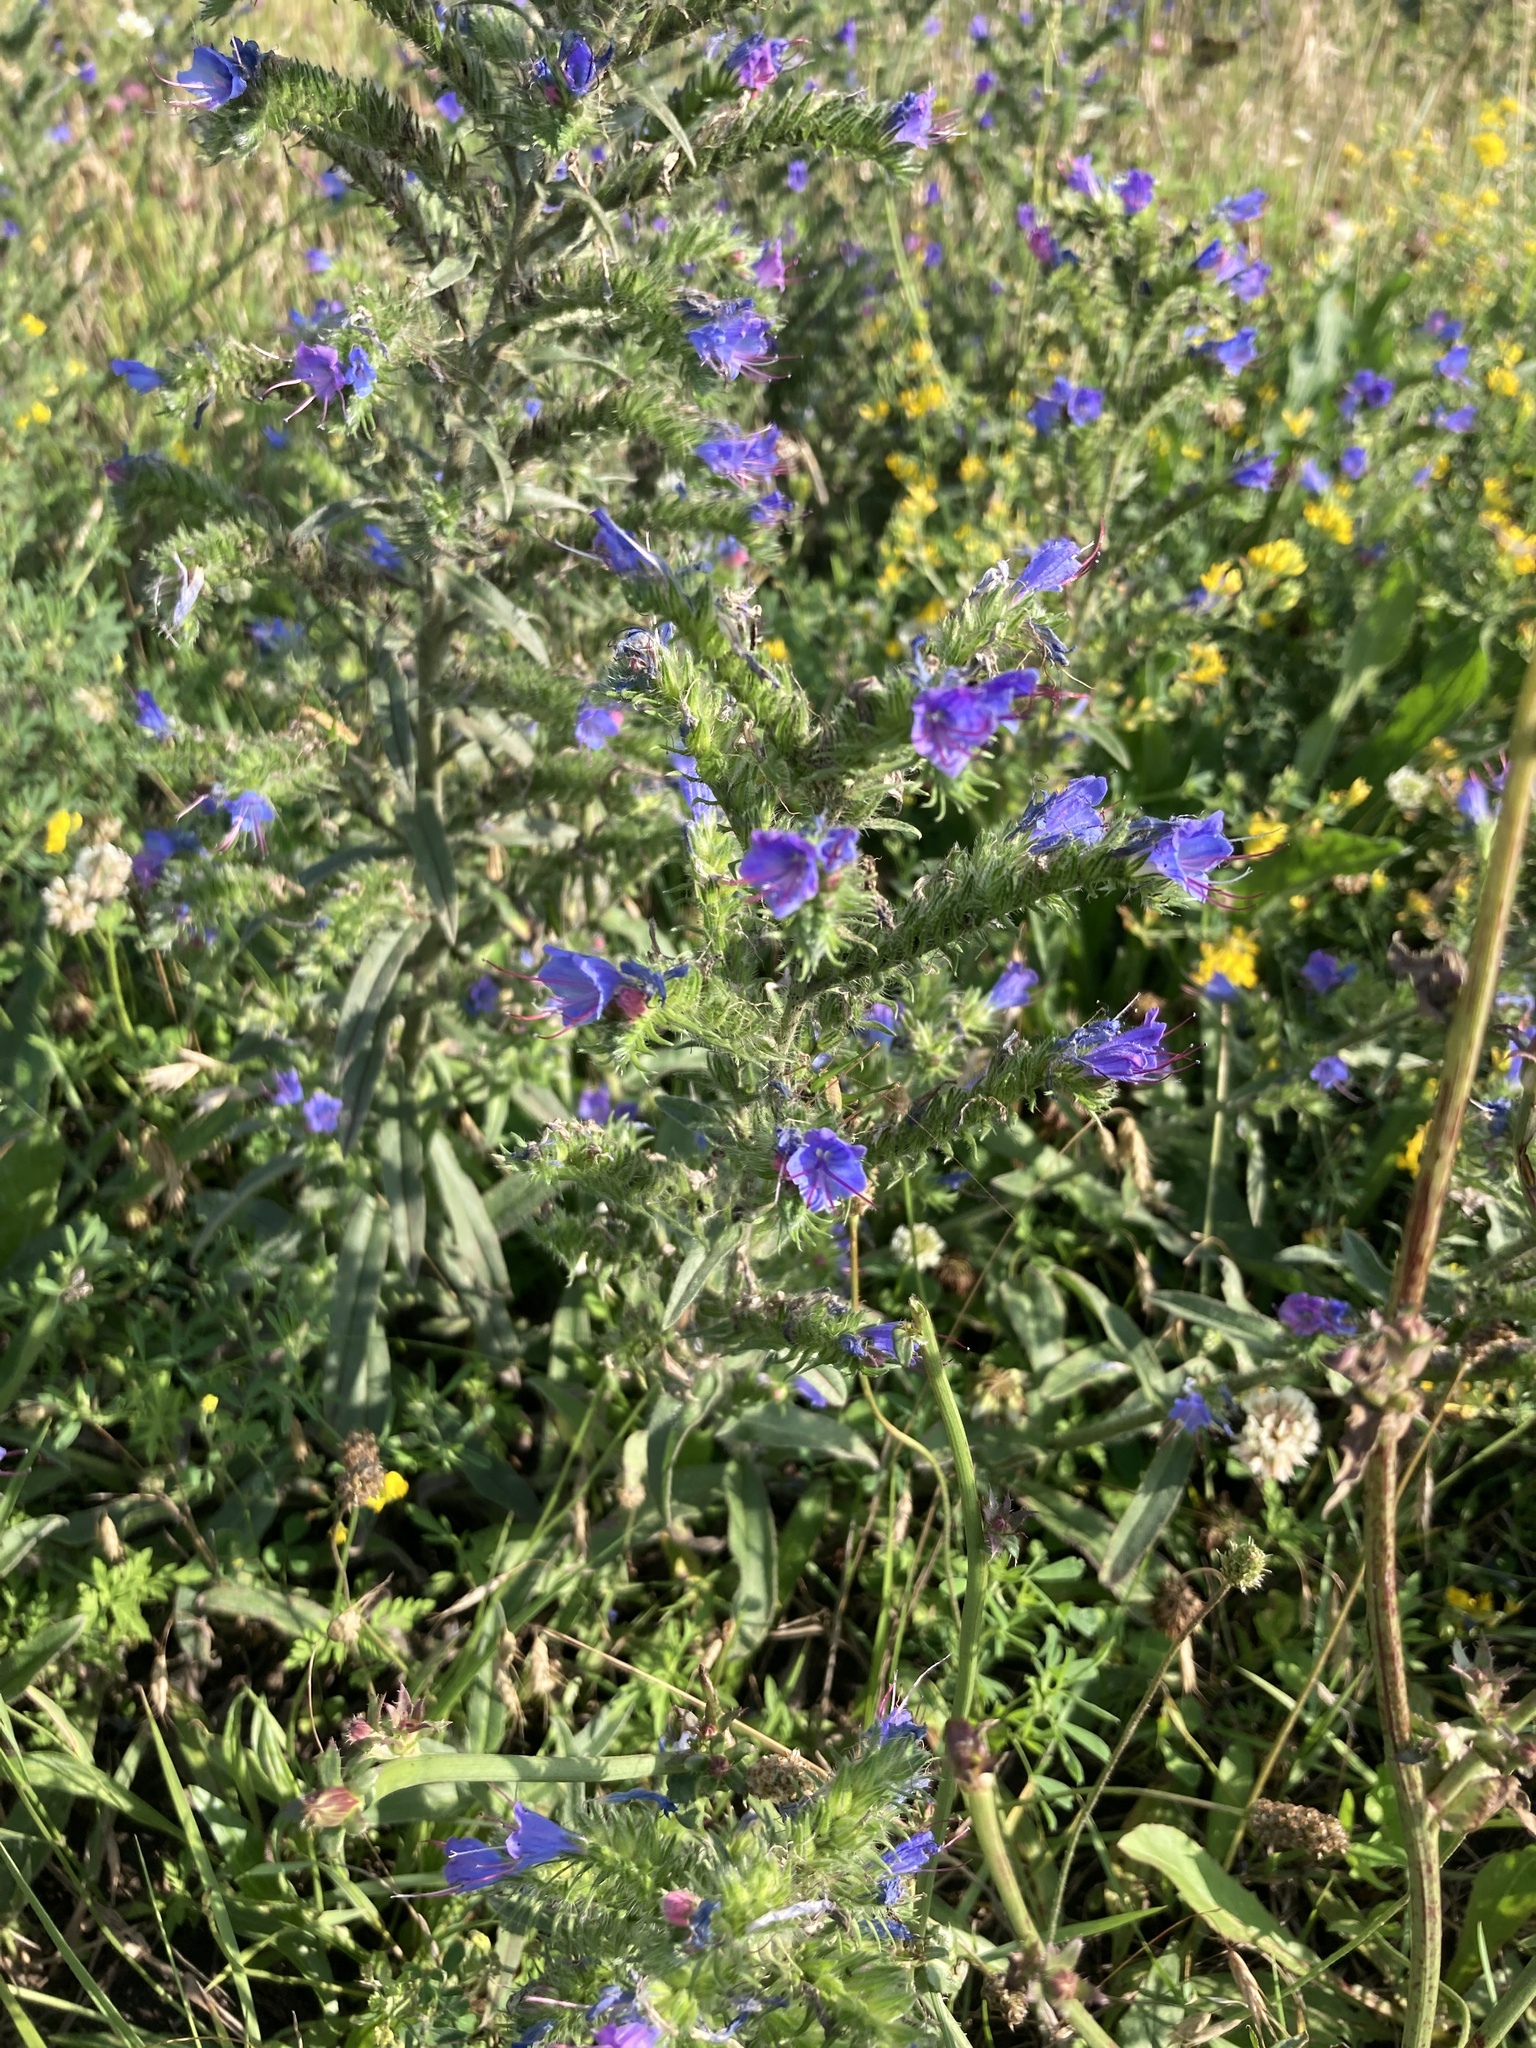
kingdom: Plantae
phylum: Tracheophyta
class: Magnoliopsida
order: Boraginales
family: Boraginaceae
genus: Echium
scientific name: Echium vulgare
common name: Common viper's bugloss
